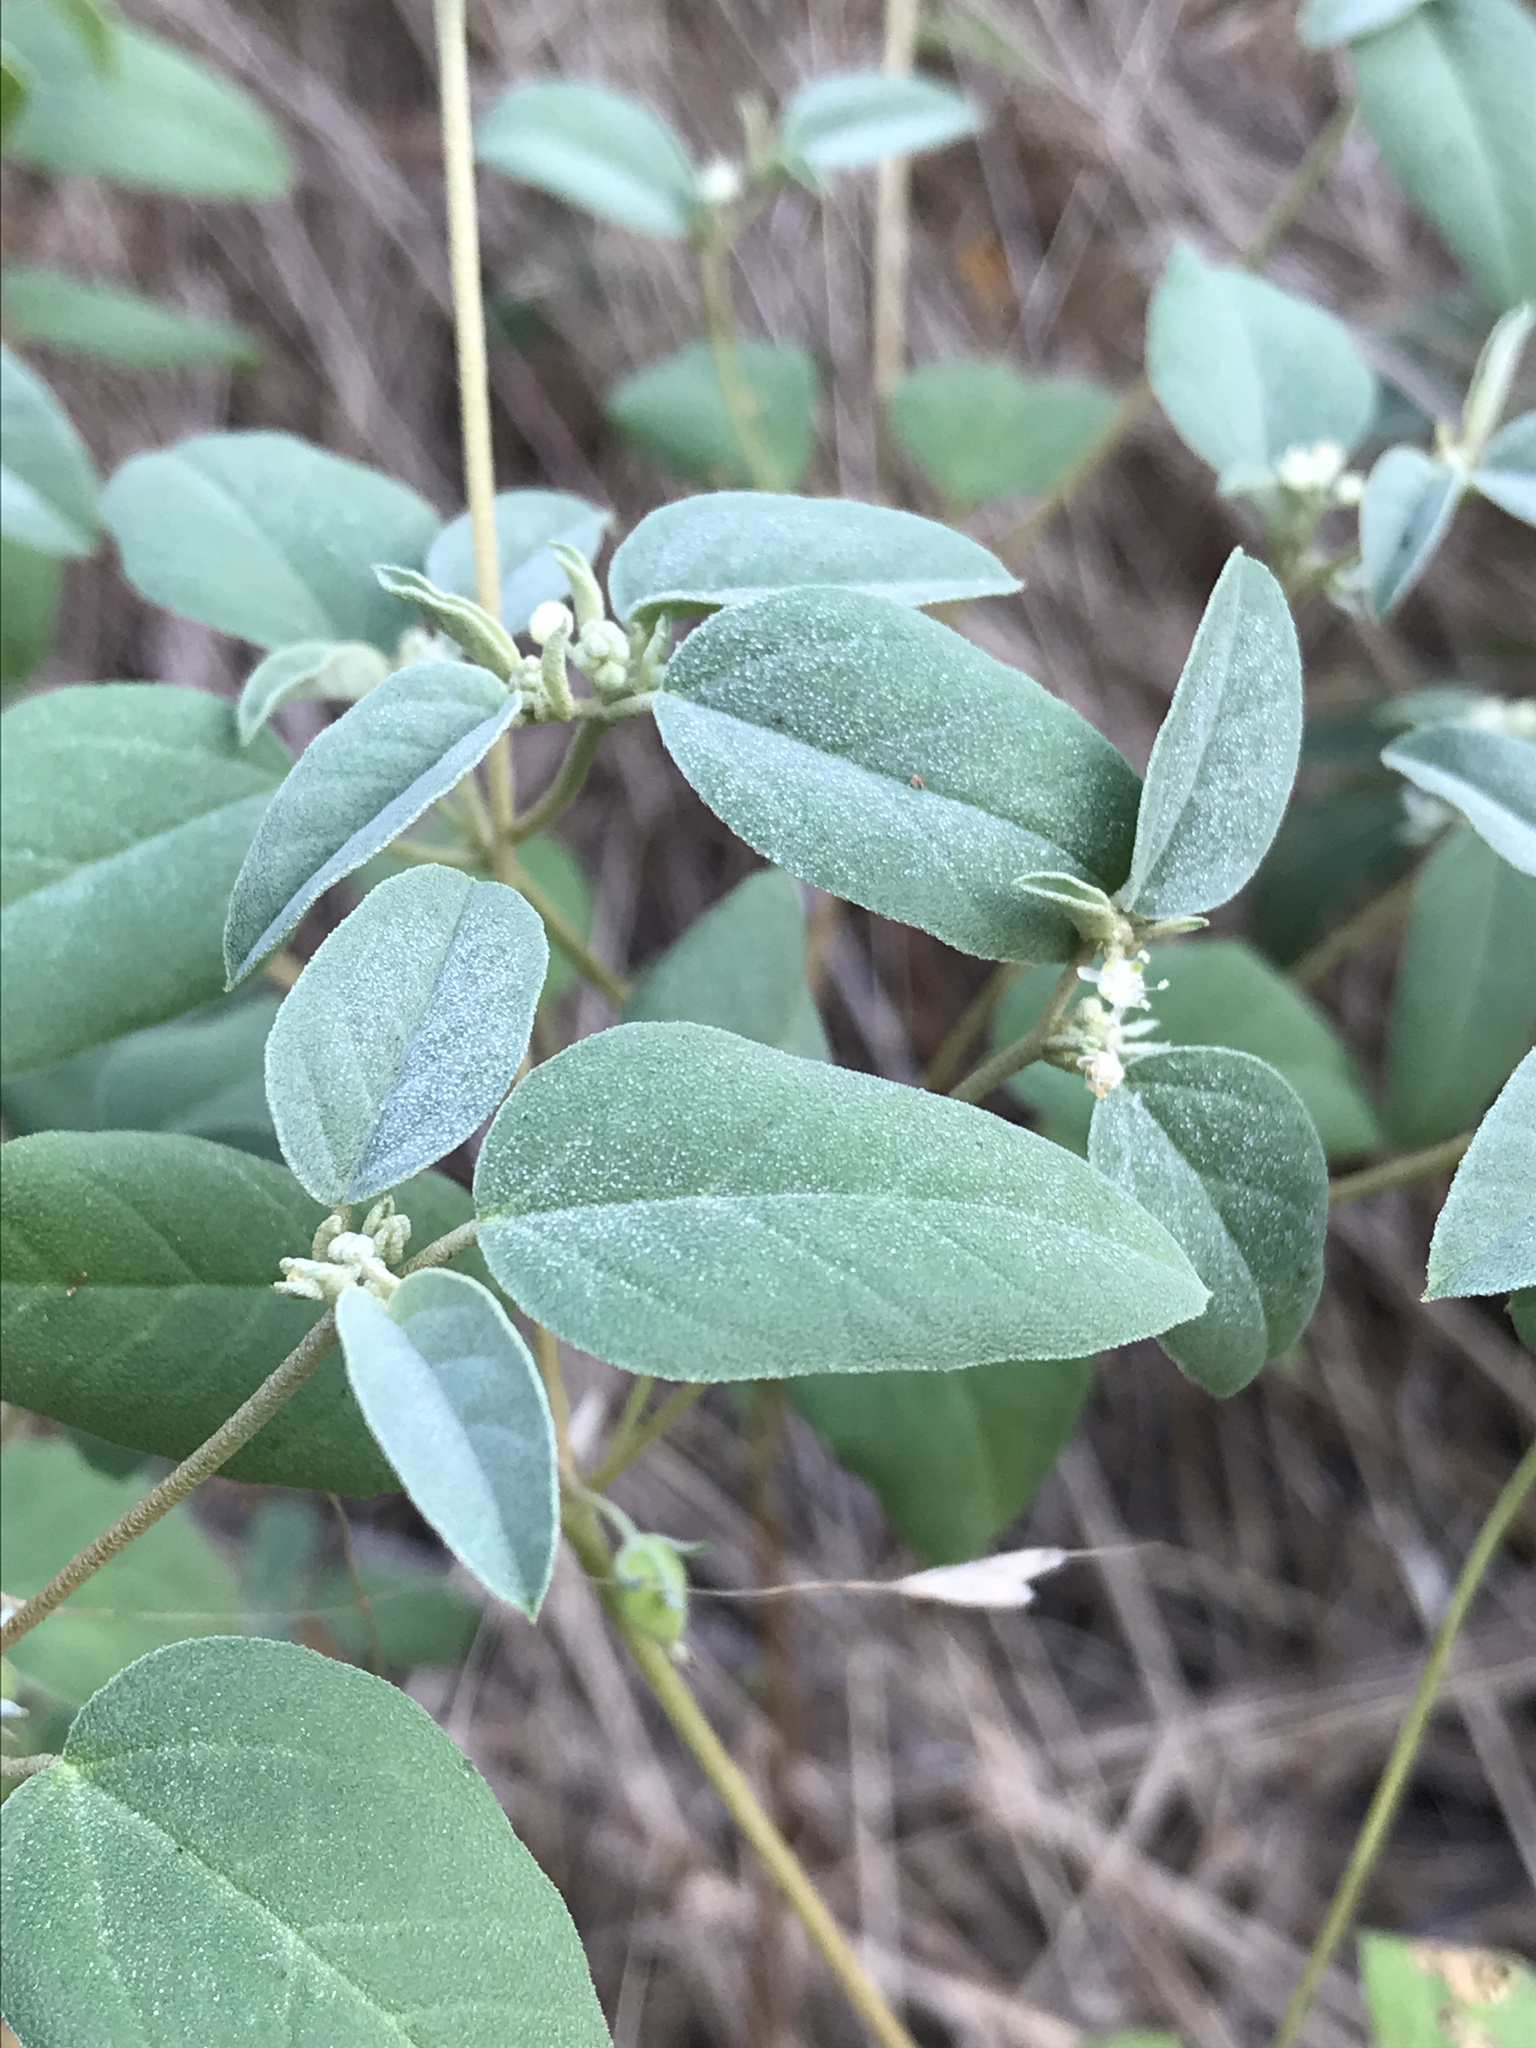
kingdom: Plantae
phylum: Tracheophyta
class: Magnoliopsida
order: Malpighiales
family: Euphorbiaceae
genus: Croton
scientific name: Croton monanthogynus
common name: One-seed croton
